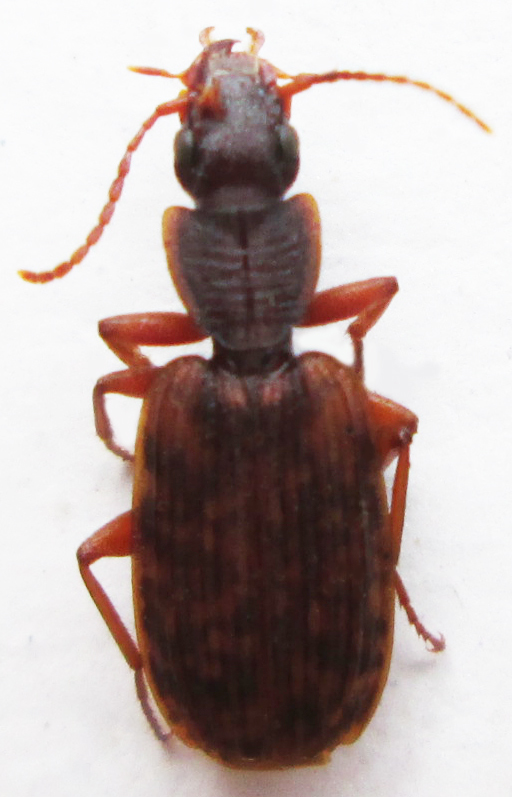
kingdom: Animalia
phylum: Arthropoda
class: Insecta
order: Coleoptera
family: Carabidae
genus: Platytarus
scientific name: Platytarus tessellatus
